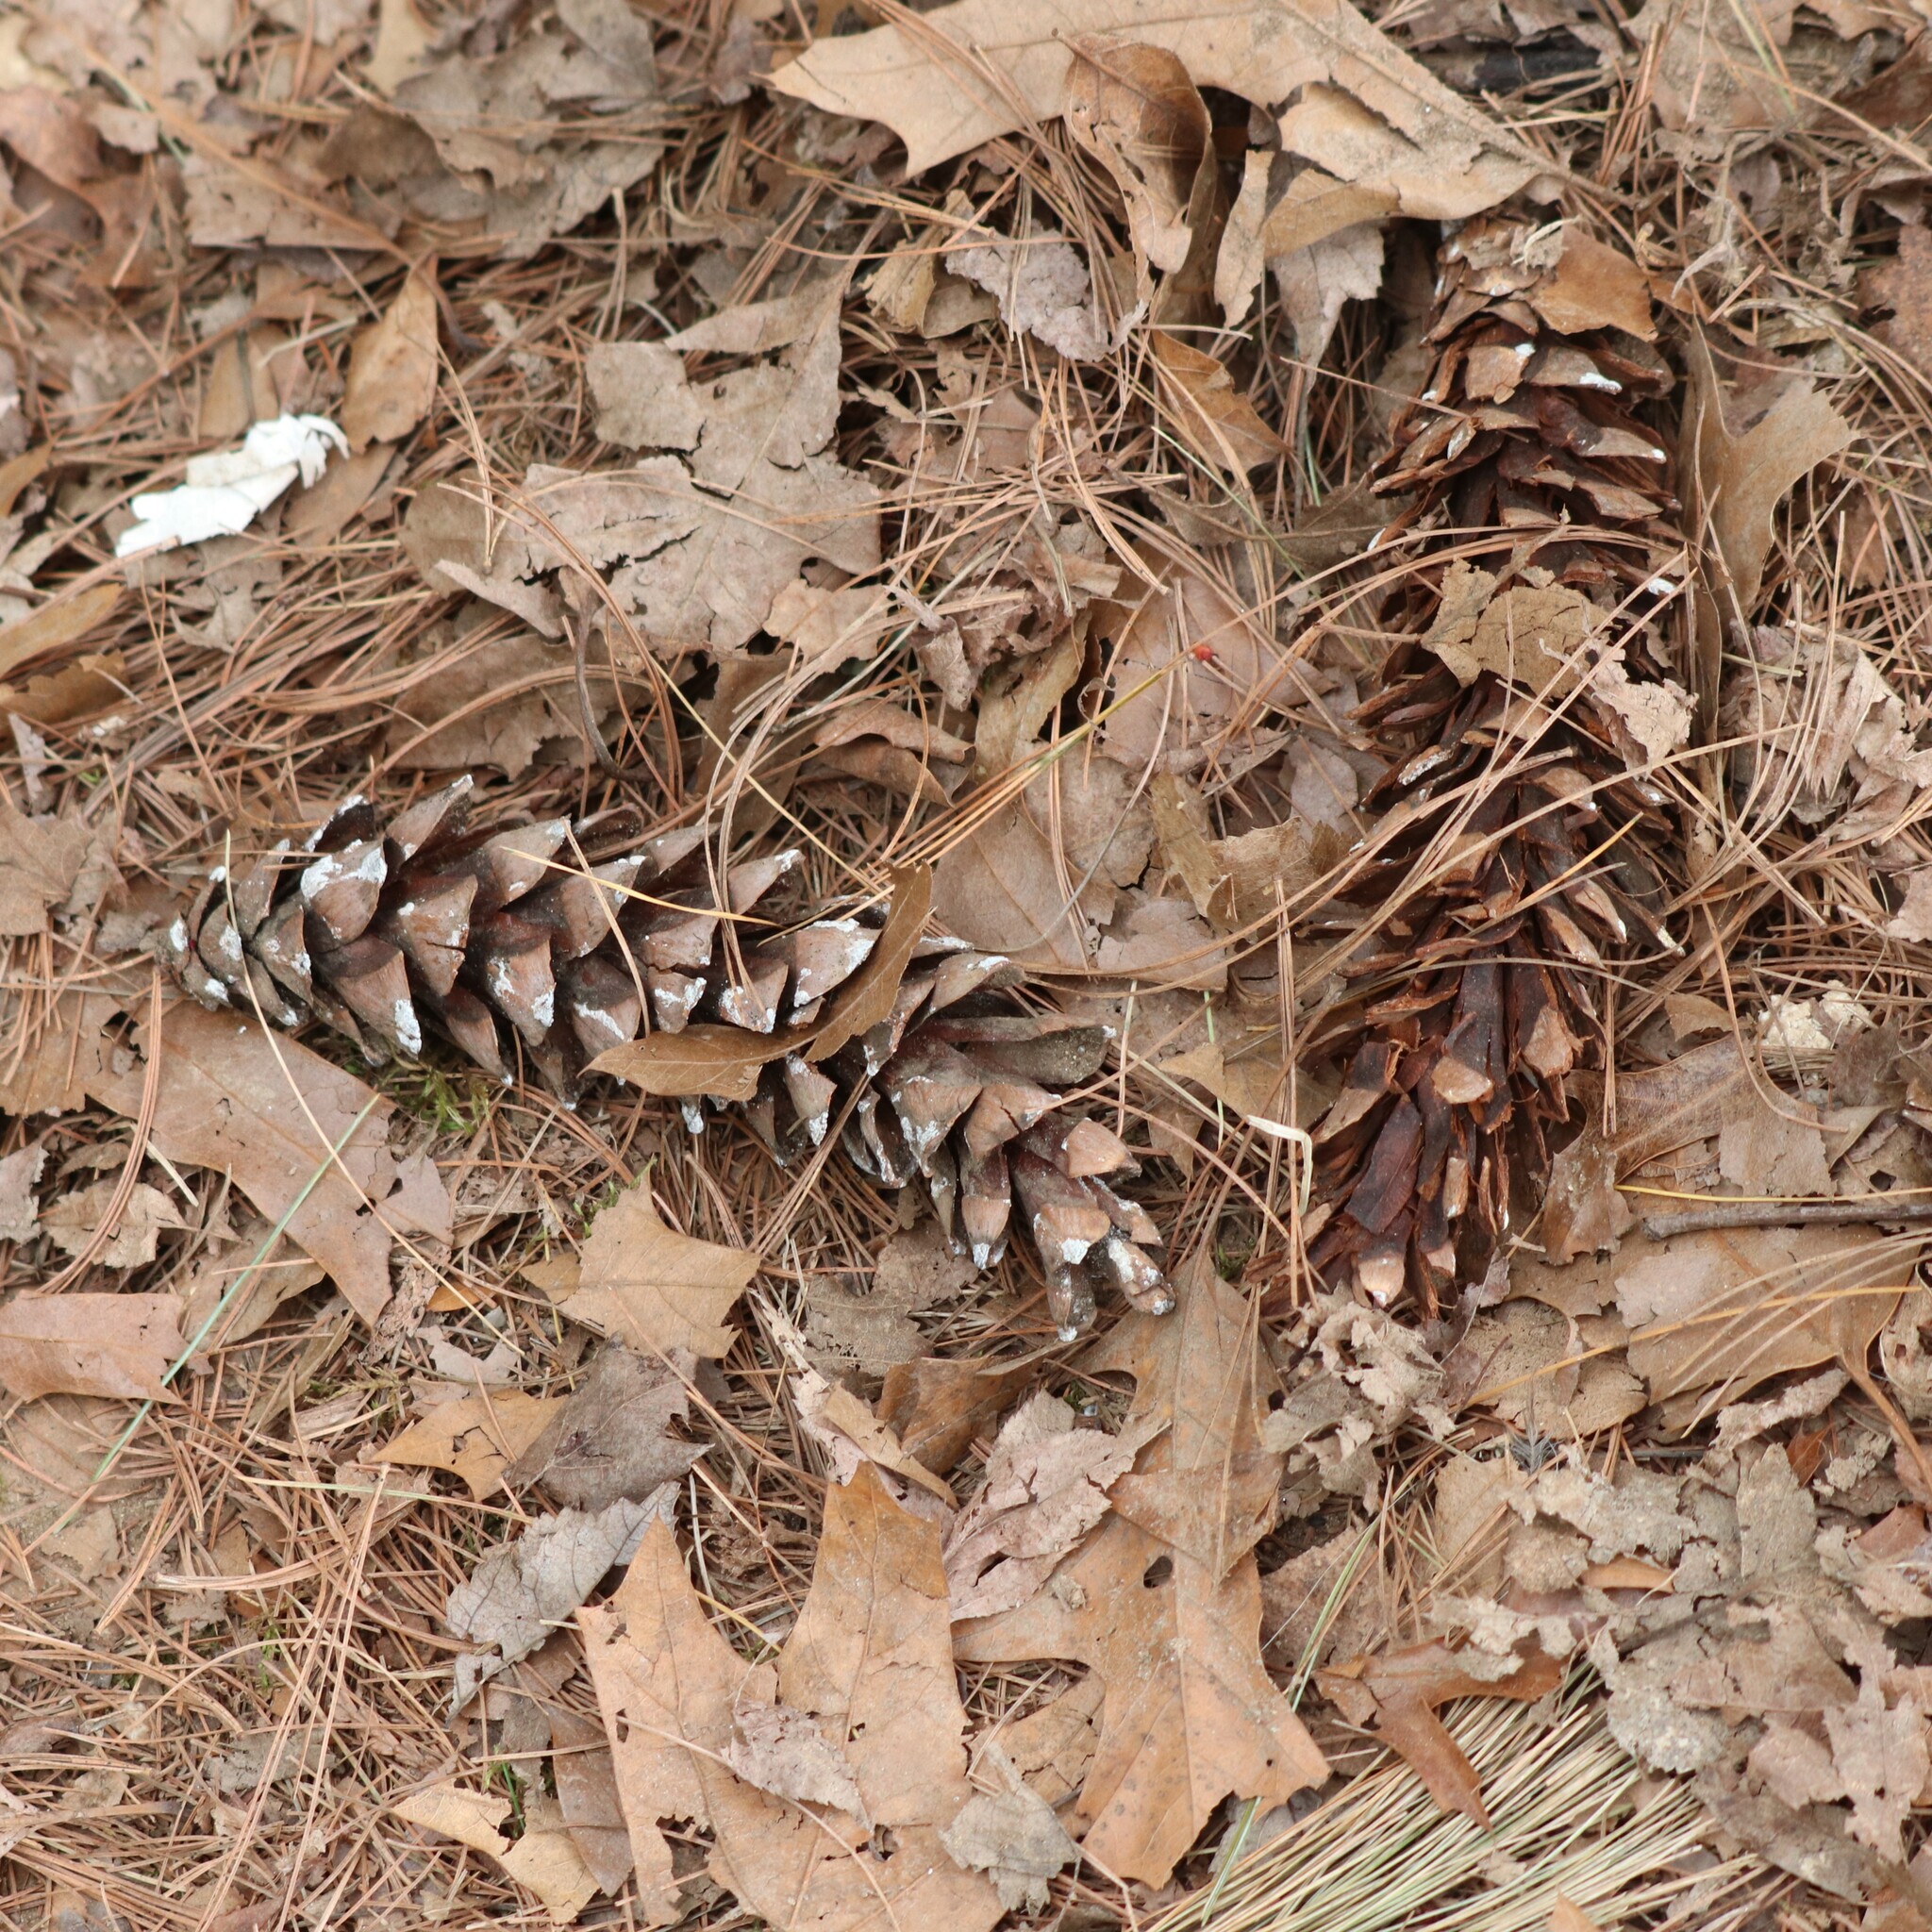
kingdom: Plantae
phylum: Tracheophyta
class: Pinopsida
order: Pinales
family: Pinaceae
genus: Pinus
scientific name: Pinus strobus
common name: Weymouth pine
